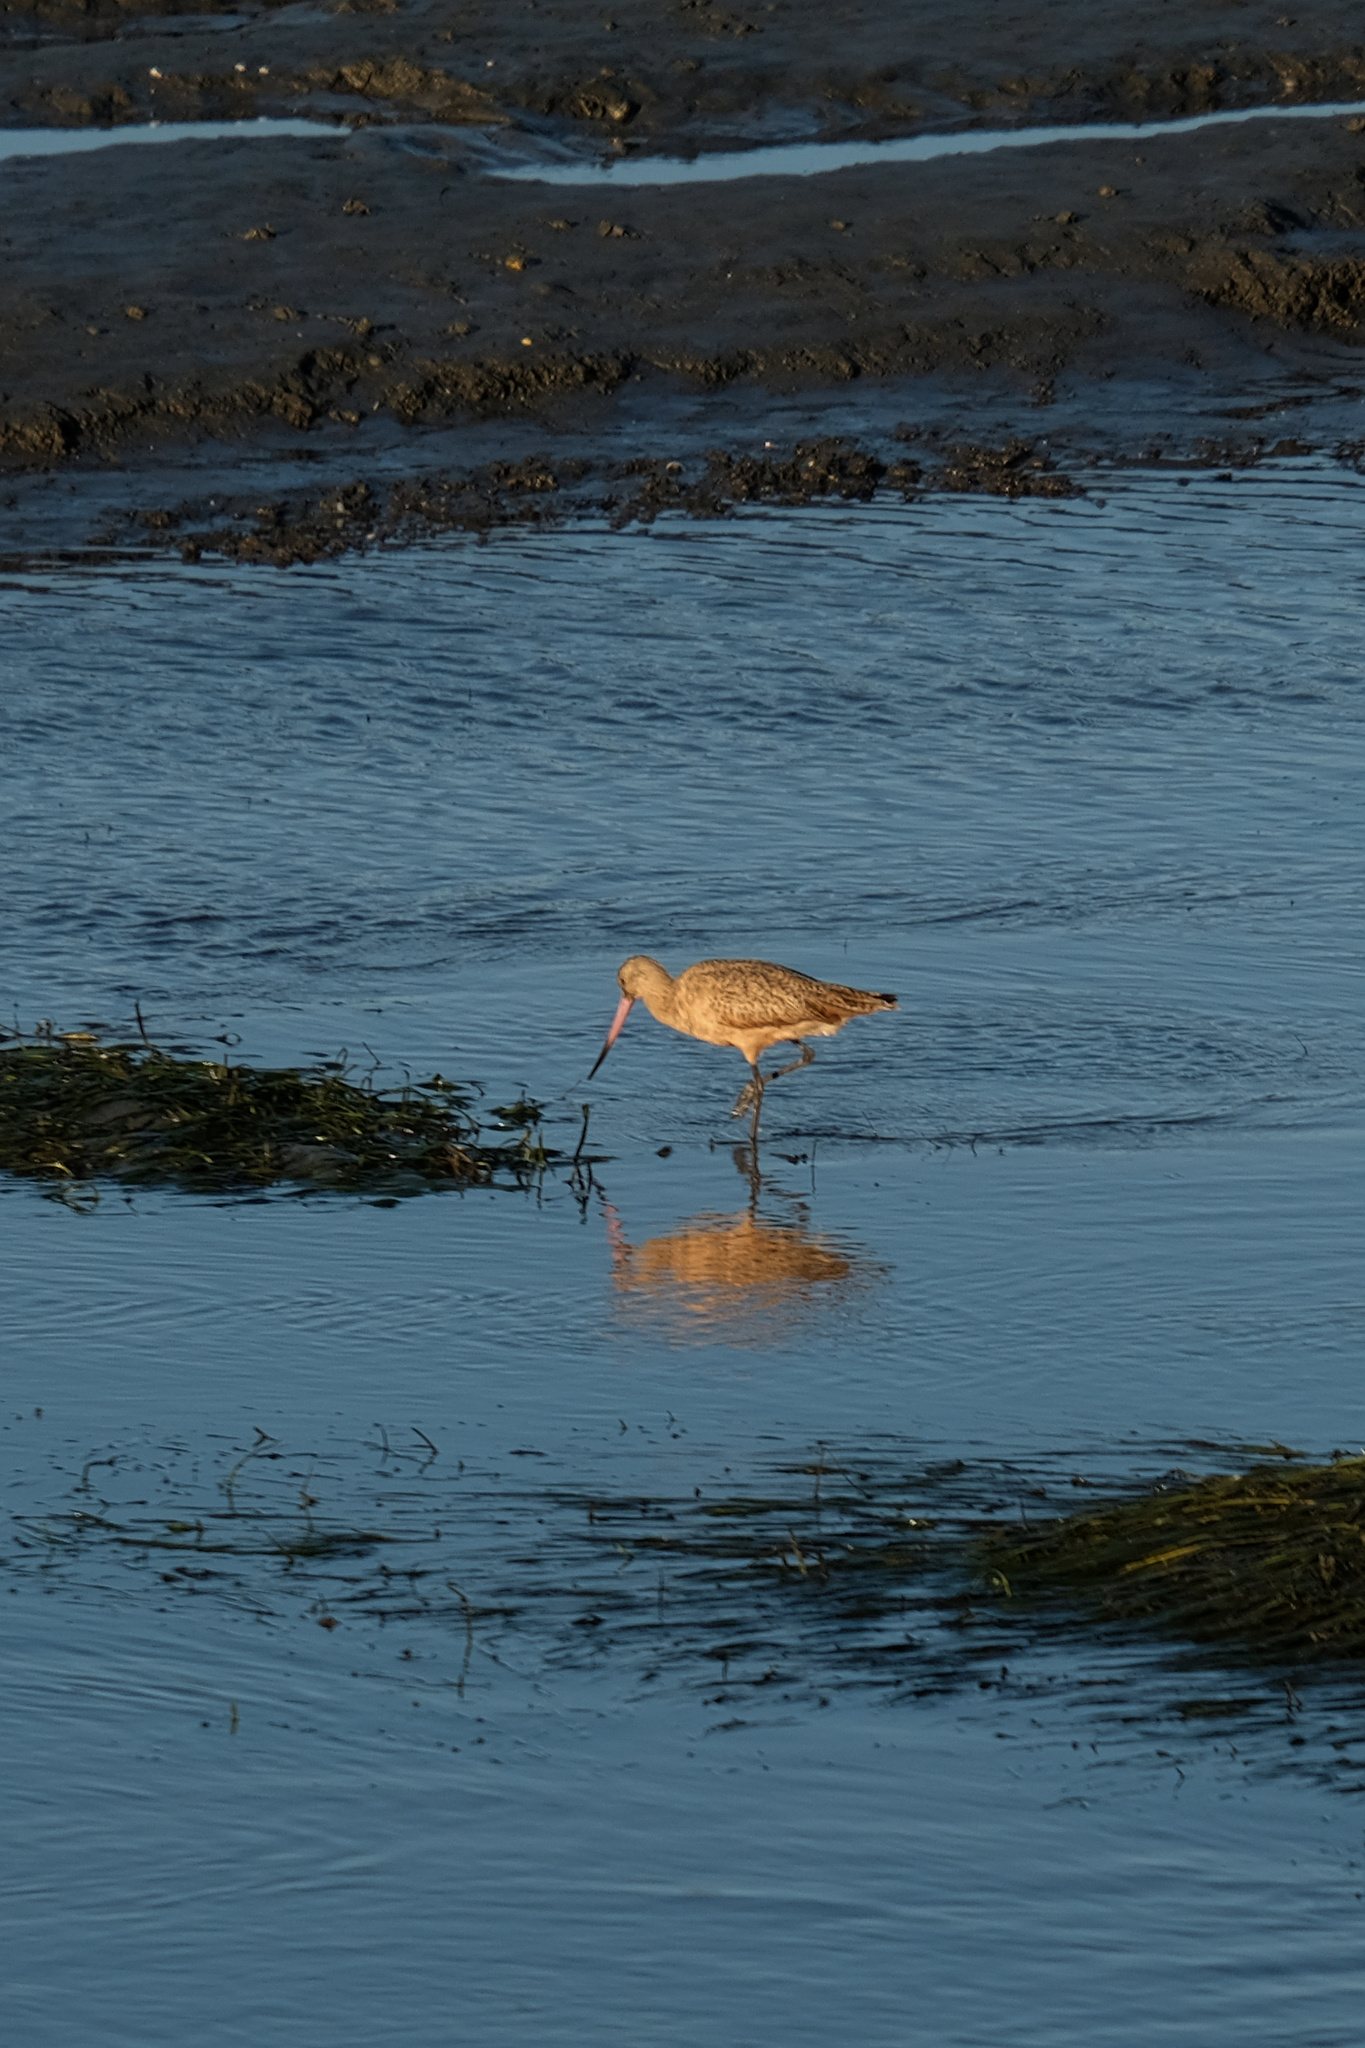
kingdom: Animalia
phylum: Chordata
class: Aves
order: Charadriiformes
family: Scolopacidae
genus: Limosa
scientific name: Limosa fedoa
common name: Marbled godwit
